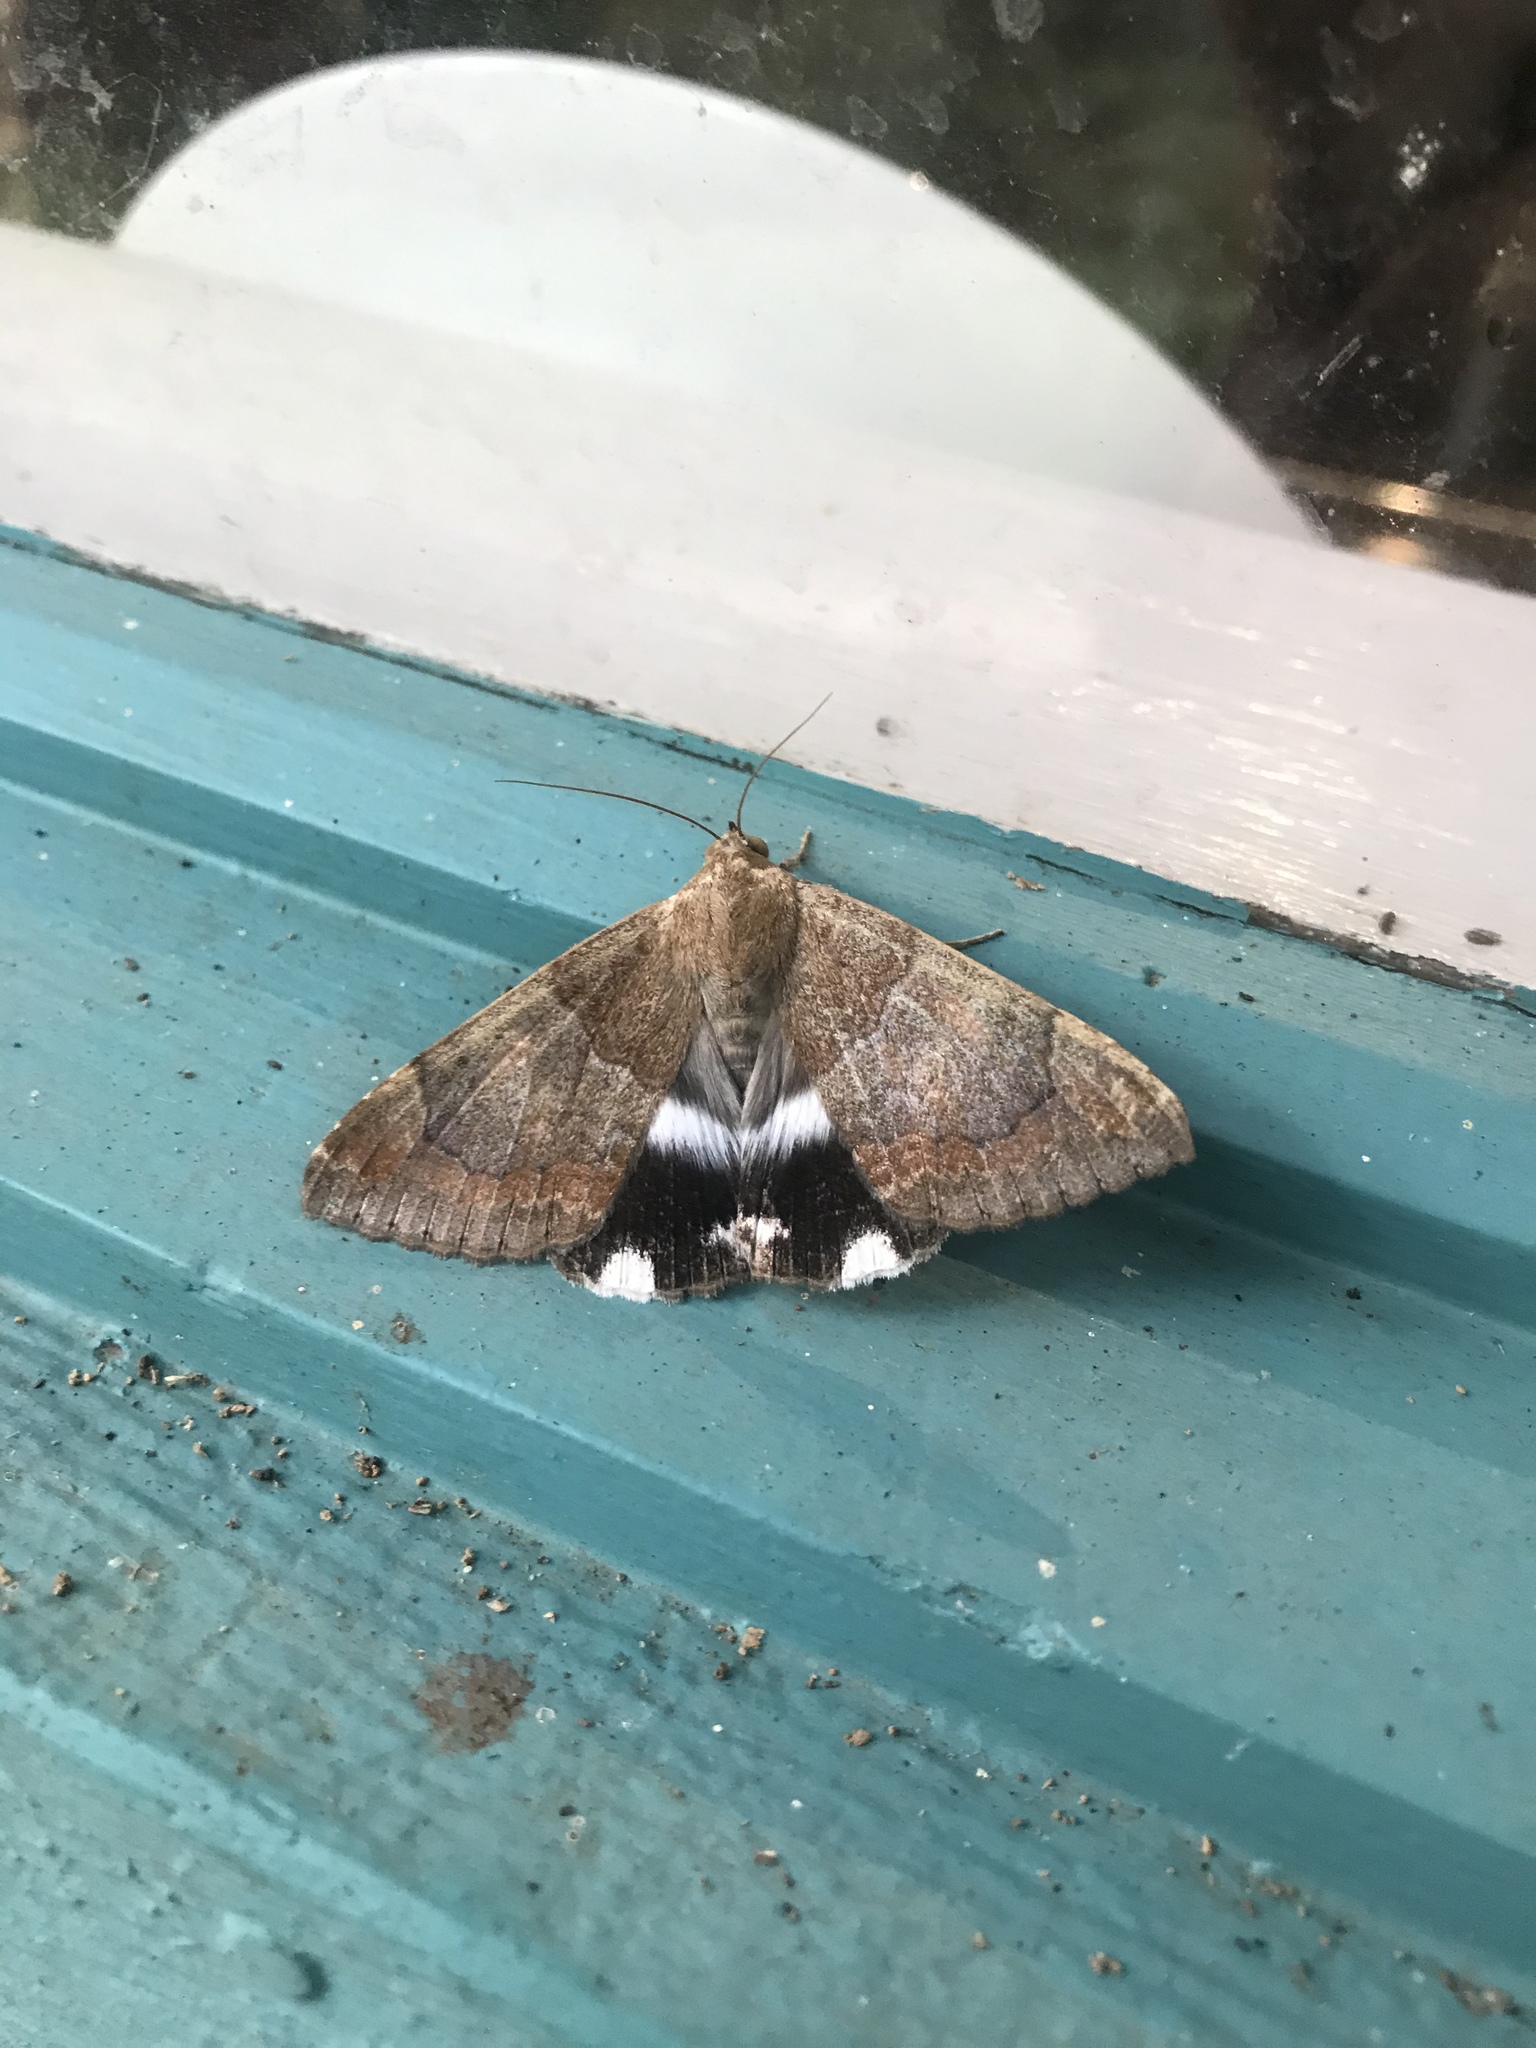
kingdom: Animalia
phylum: Arthropoda
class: Insecta
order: Lepidoptera
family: Erebidae
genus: Achaea
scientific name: Achaea janata
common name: Croton caterpillar
